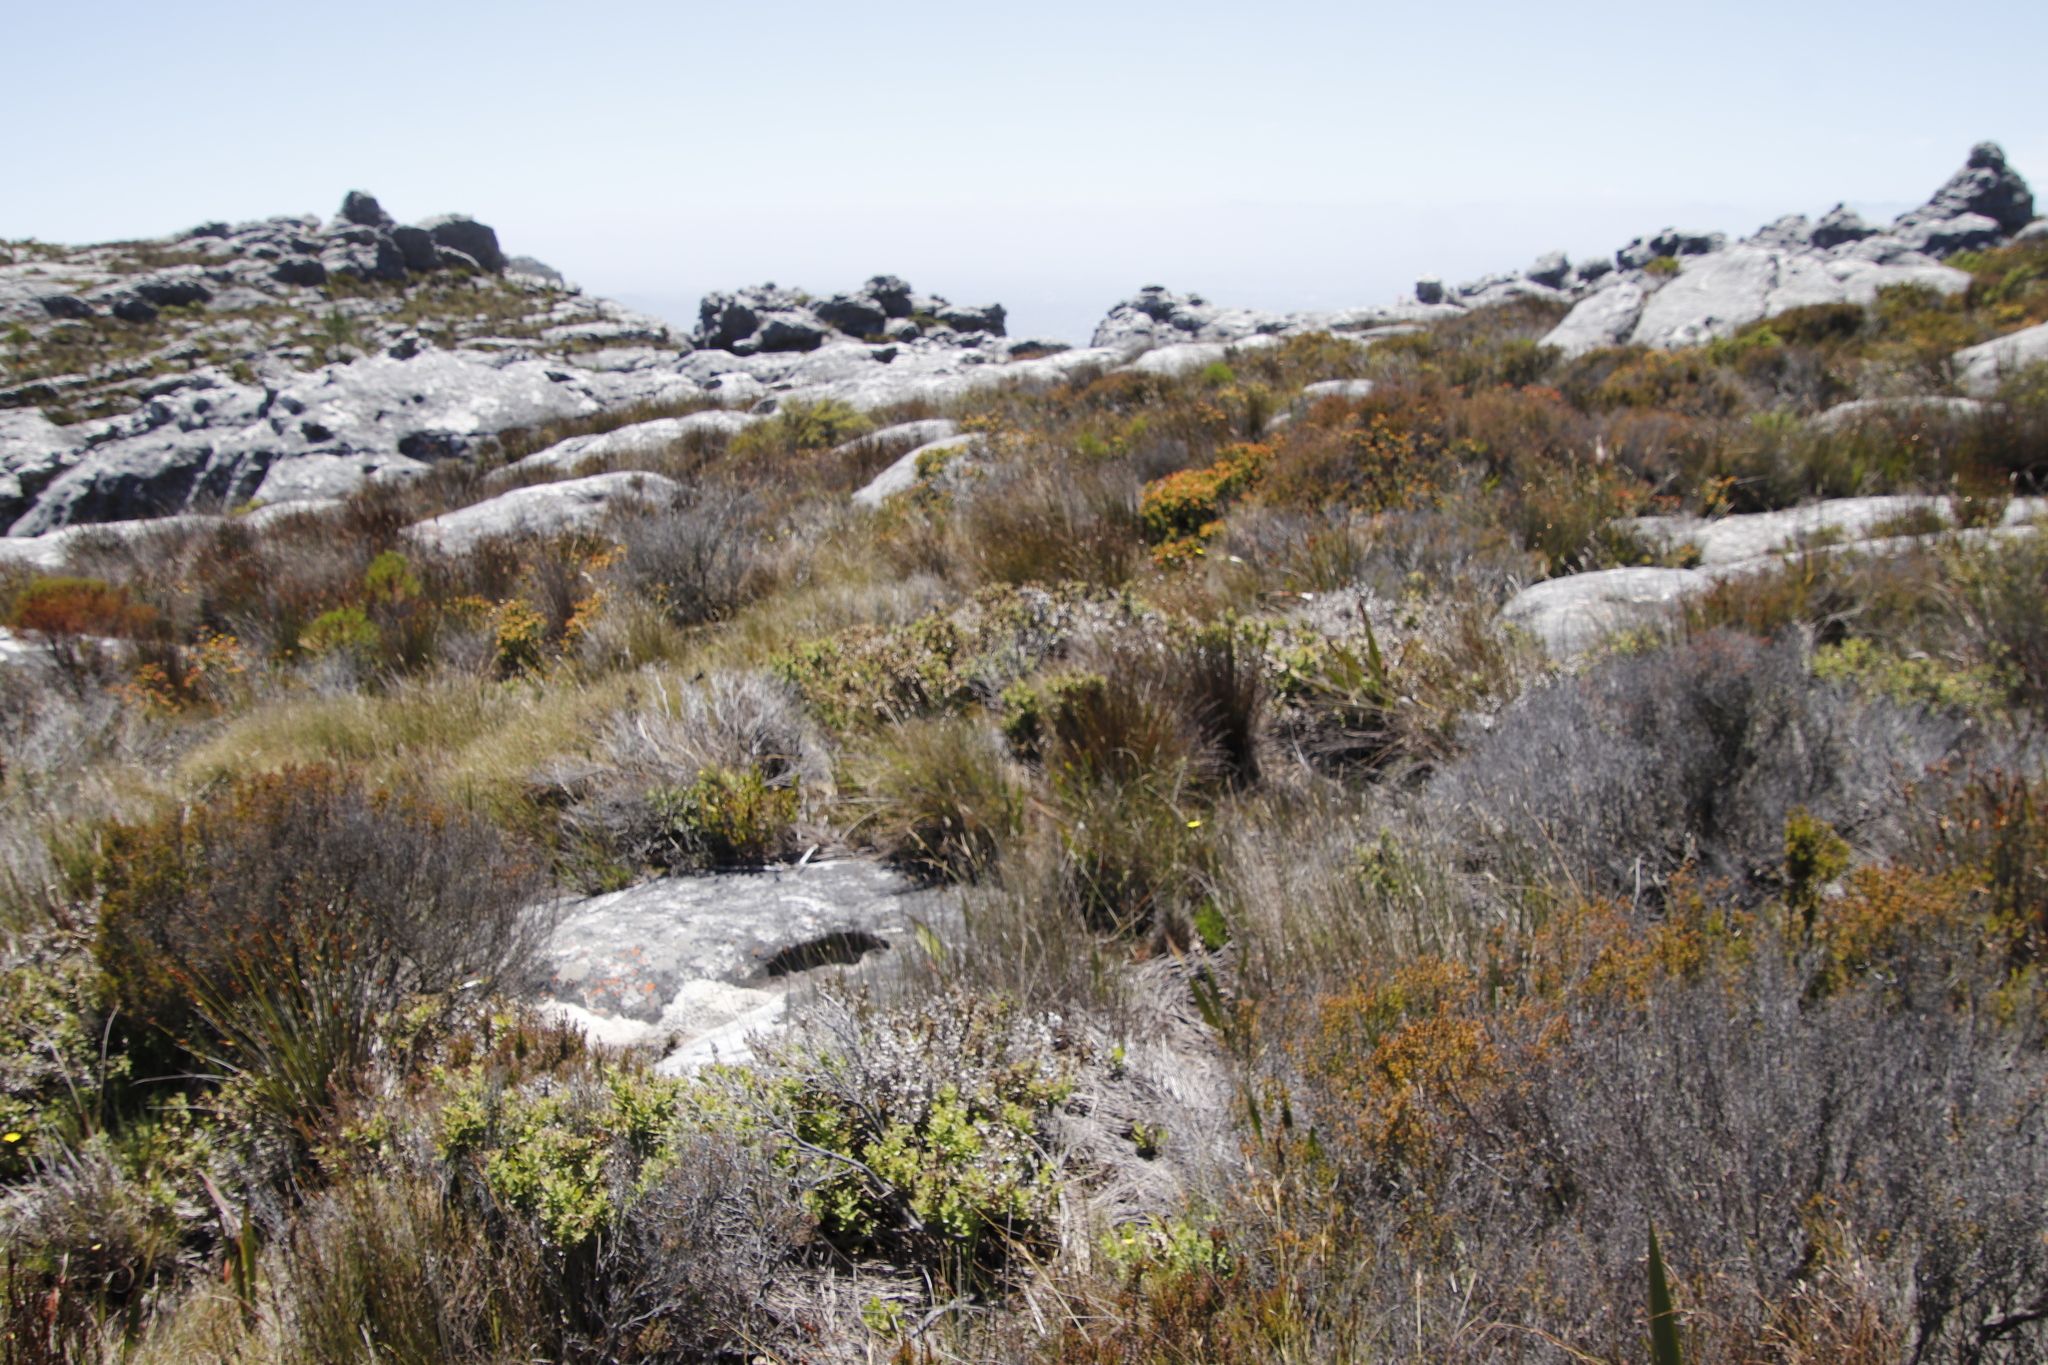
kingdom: Plantae
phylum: Tracheophyta
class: Magnoliopsida
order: Asterales
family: Asteraceae
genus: Osteospermum
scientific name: Osteospermum ilicifolium
